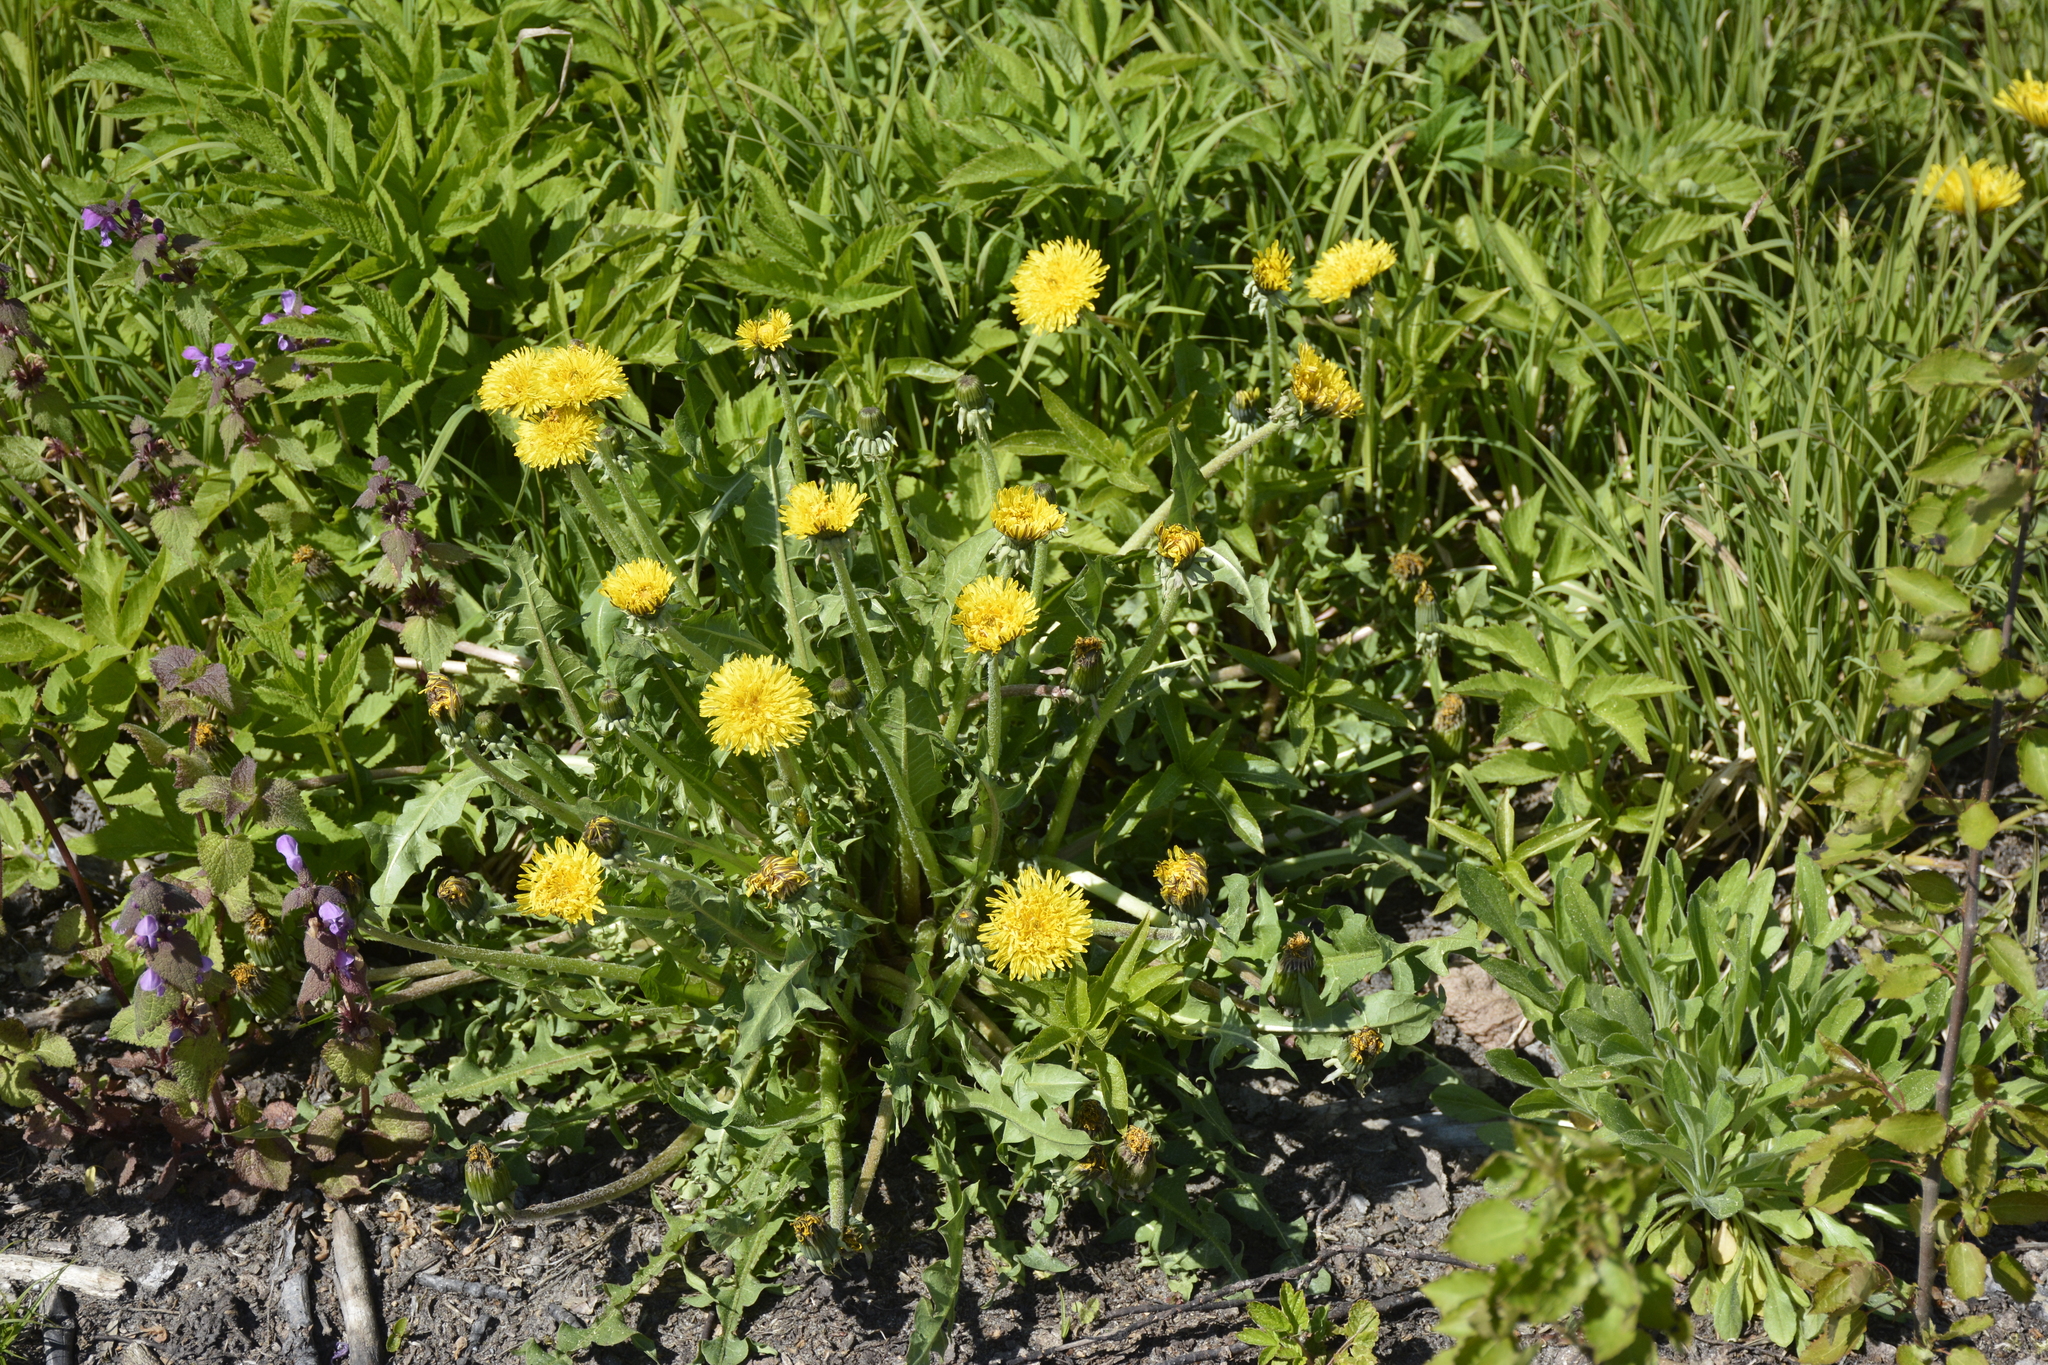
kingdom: Plantae
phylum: Tracheophyta
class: Magnoliopsida
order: Asterales
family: Asteraceae
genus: Taraxacum
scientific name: Taraxacum officinale
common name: Common dandelion
